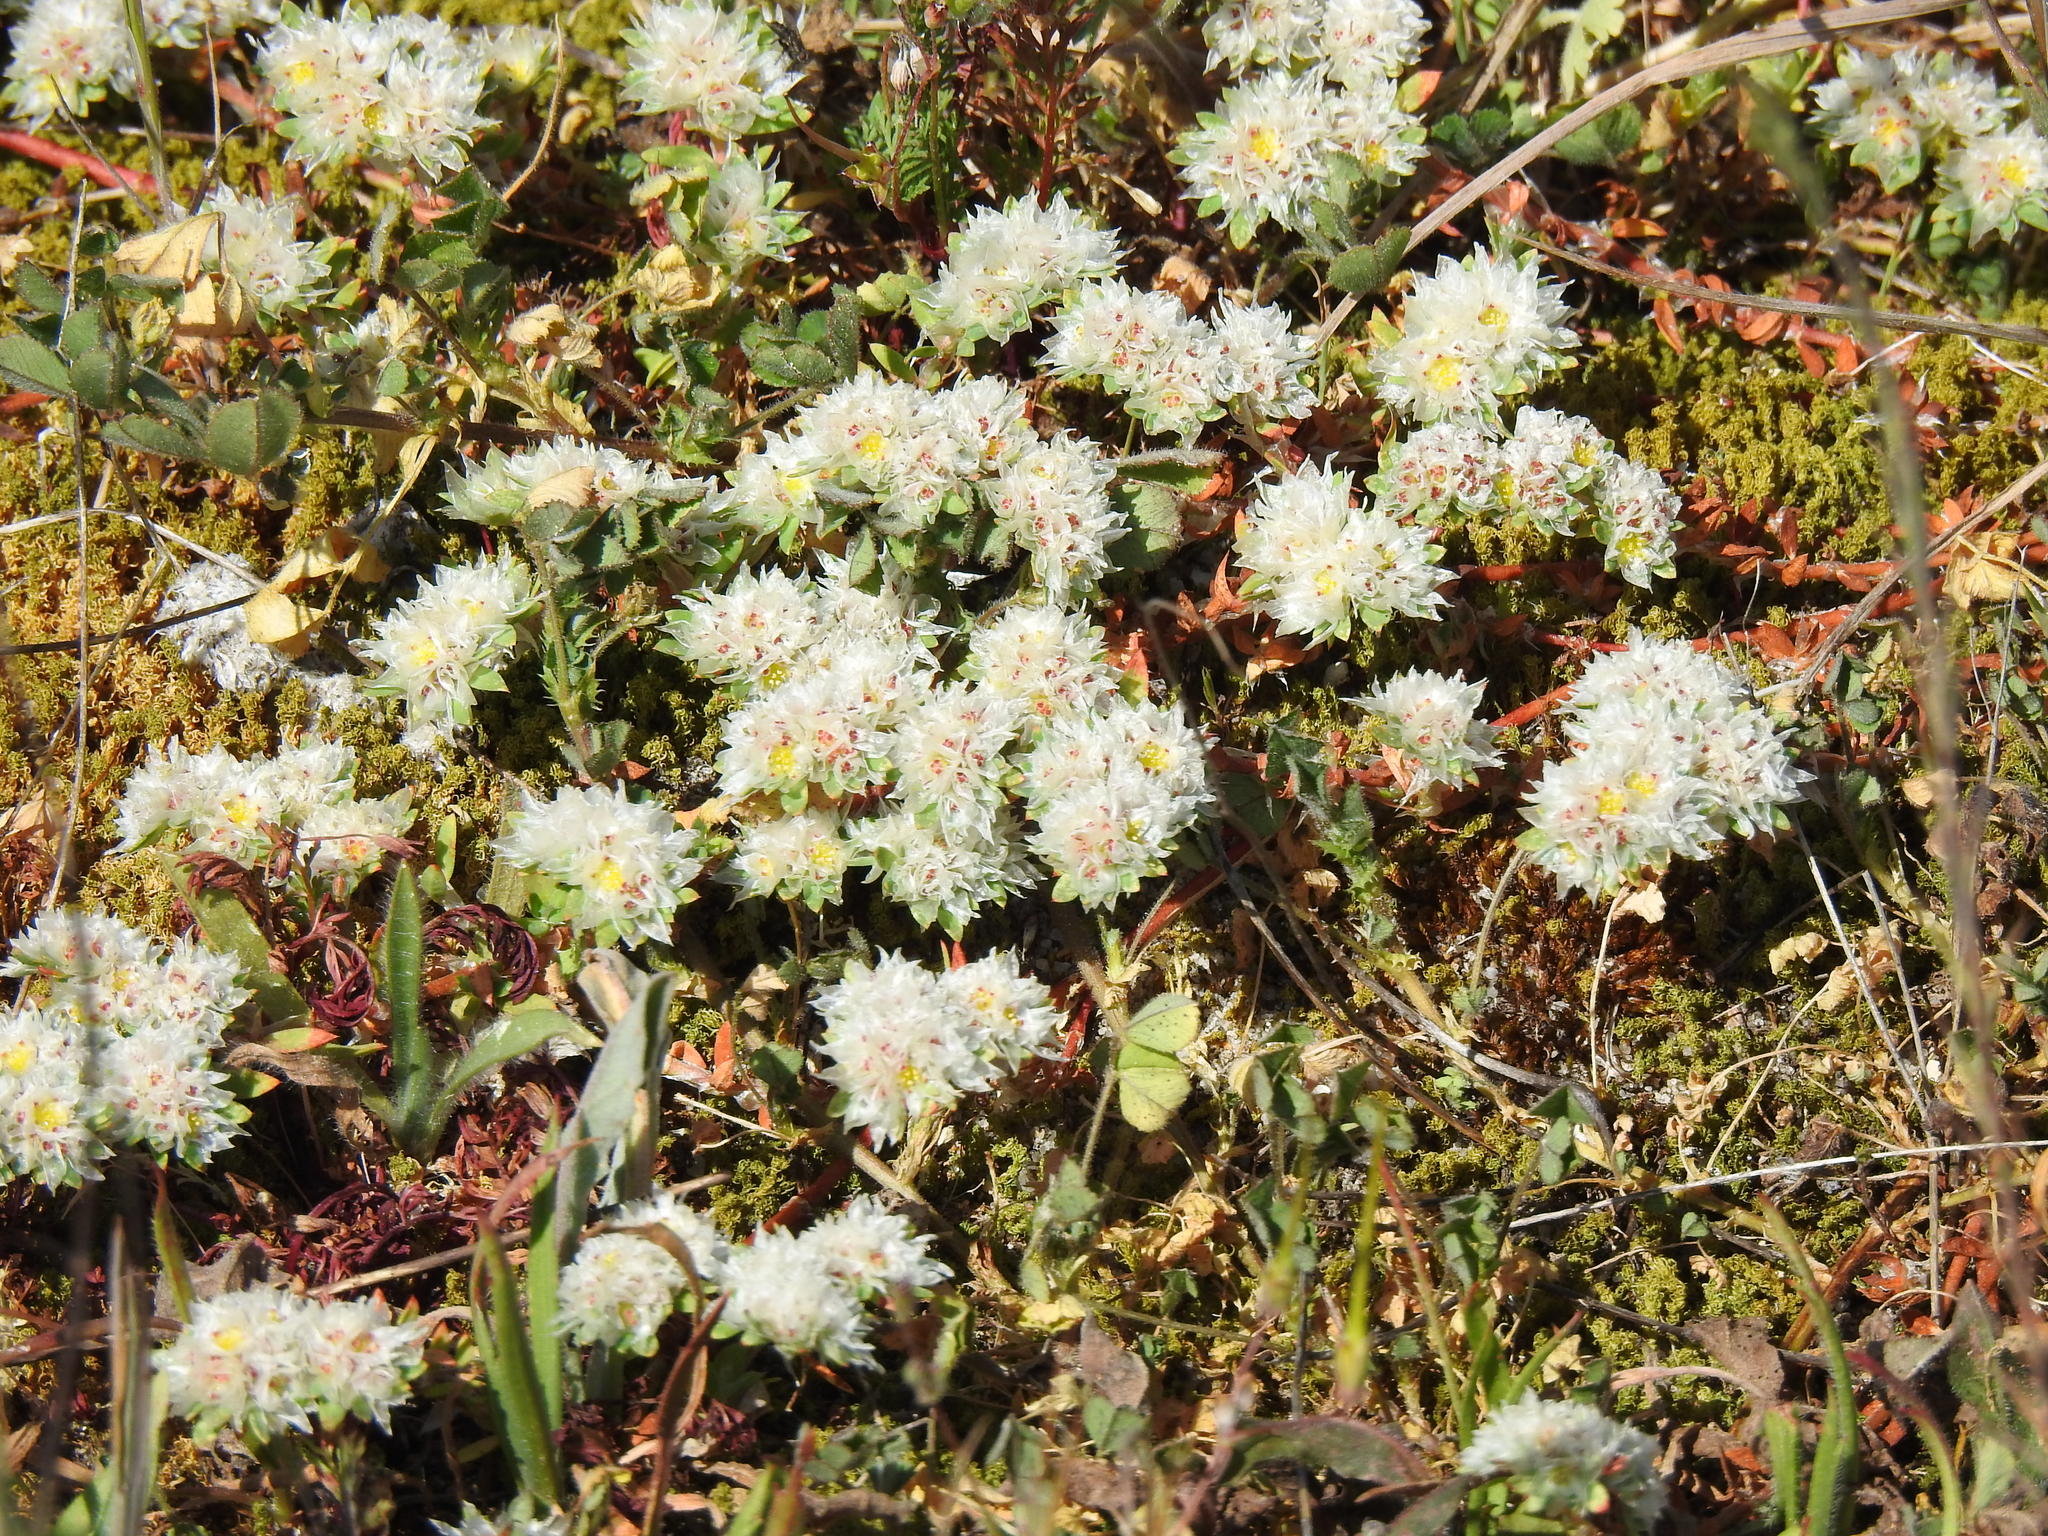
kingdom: Plantae
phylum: Tracheophyta
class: Magnoliopsida
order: Caryophyllales
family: Caryophyllaceae
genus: Paronychia
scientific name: Paronychia argentea
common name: Silver nailroot
